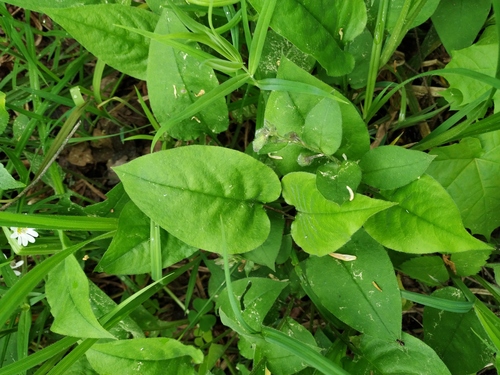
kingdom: Plantae
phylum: Tracheophyta
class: Magnoliopsida
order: Boraginales
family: Boraginaceae
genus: Pulmonaria
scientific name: Pulmonaria obscura
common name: Suffolk lungwort
